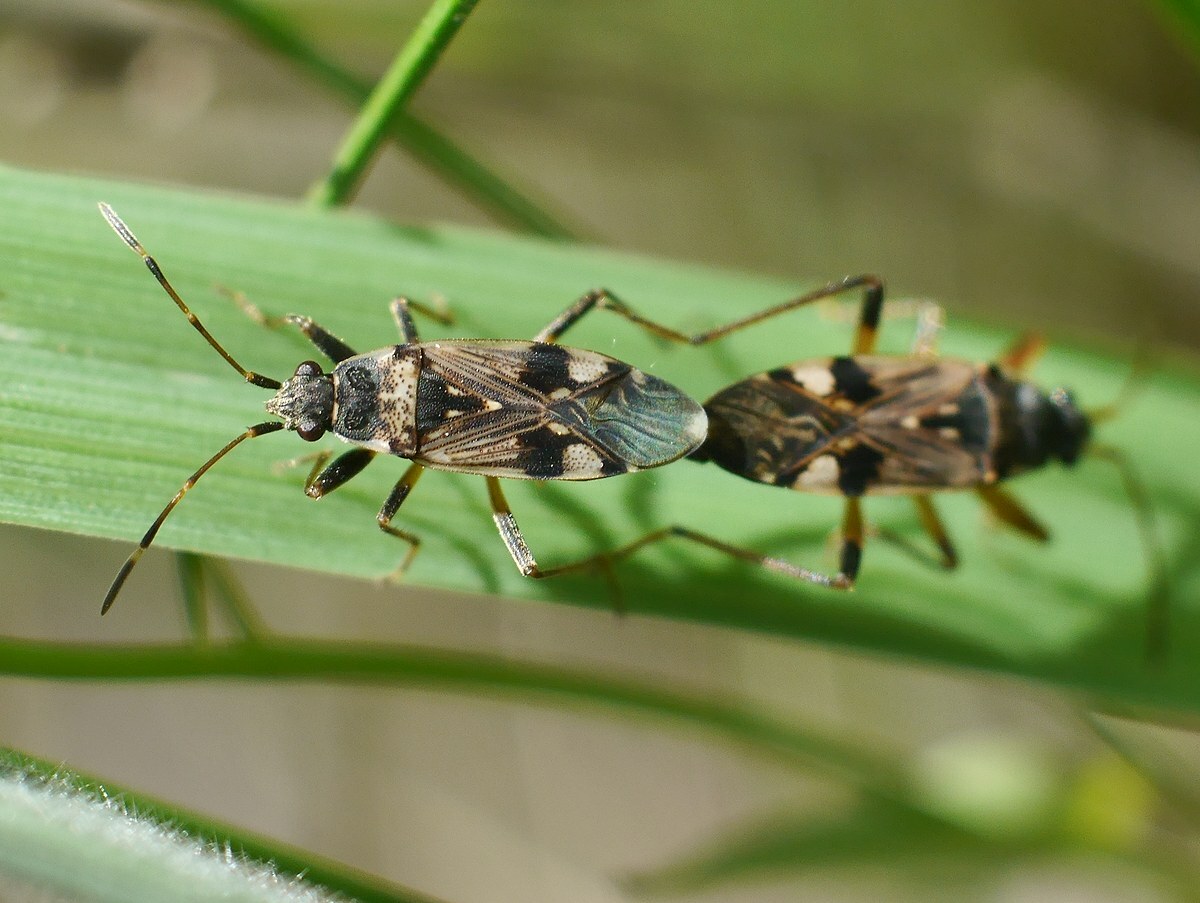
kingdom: Animalia
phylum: Arthropoda
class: Insecta
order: Hemiptera
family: Rhyparochromidae
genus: Beosus
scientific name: Beosus maritimus
